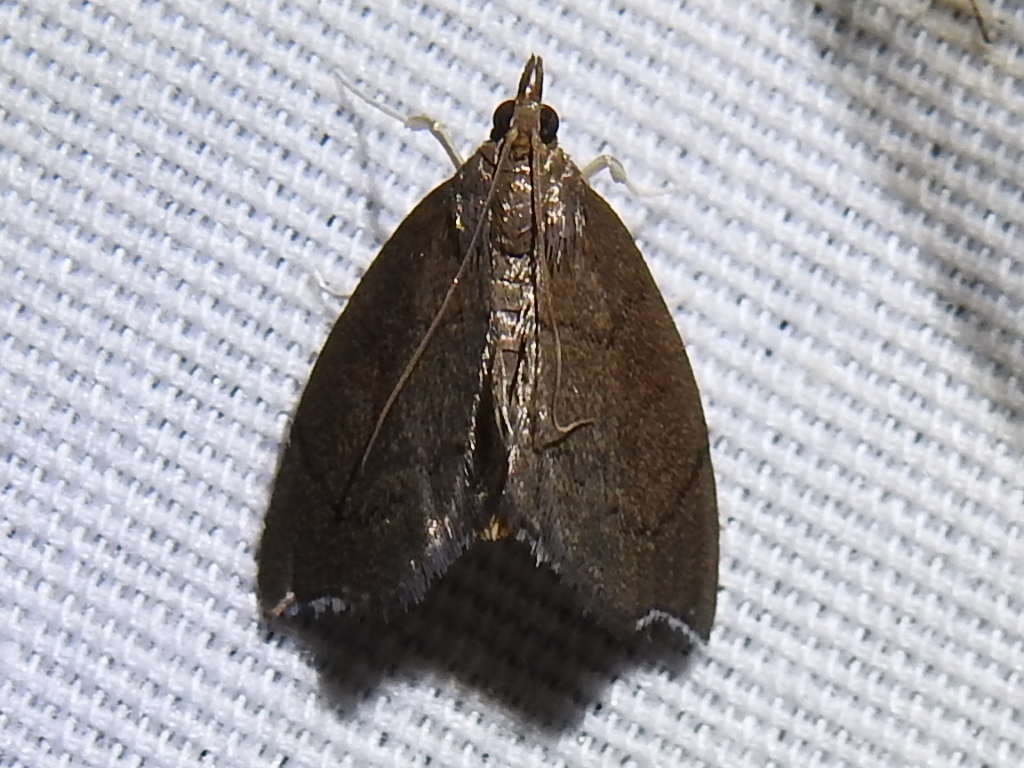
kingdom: Animalia
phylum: Arthropoda
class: Insecta
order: Lepidoptera
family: Crambidae
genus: Sericoplaga
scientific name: Sericoplaga externalis
